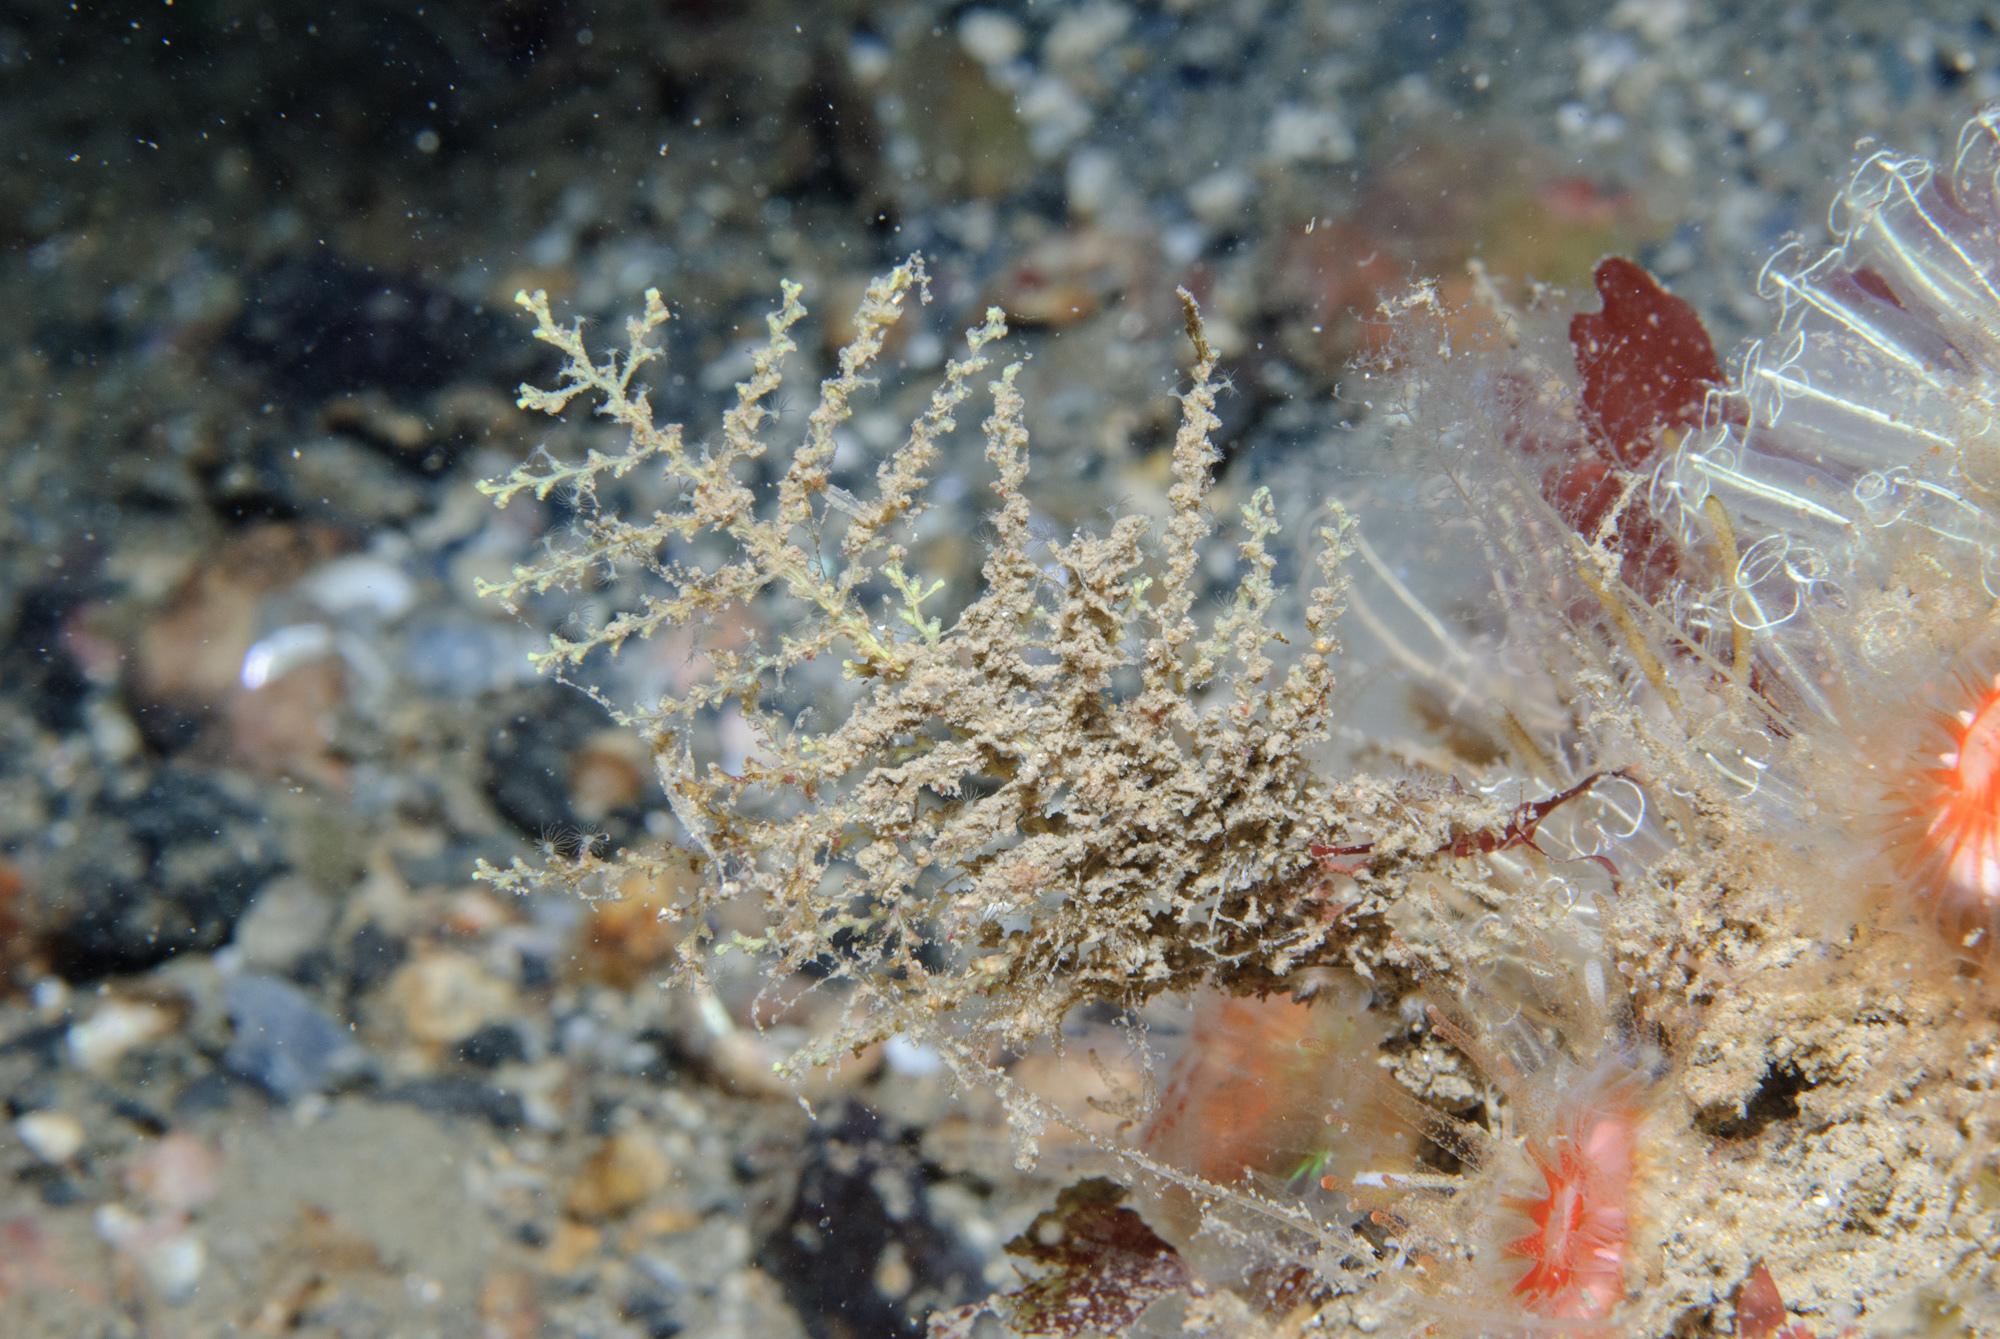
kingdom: Animalia
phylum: Cnidaria
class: Hydrozoa
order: Leptothecata
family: Sertularellidae
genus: Sertularella
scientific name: Sertularella gayi
